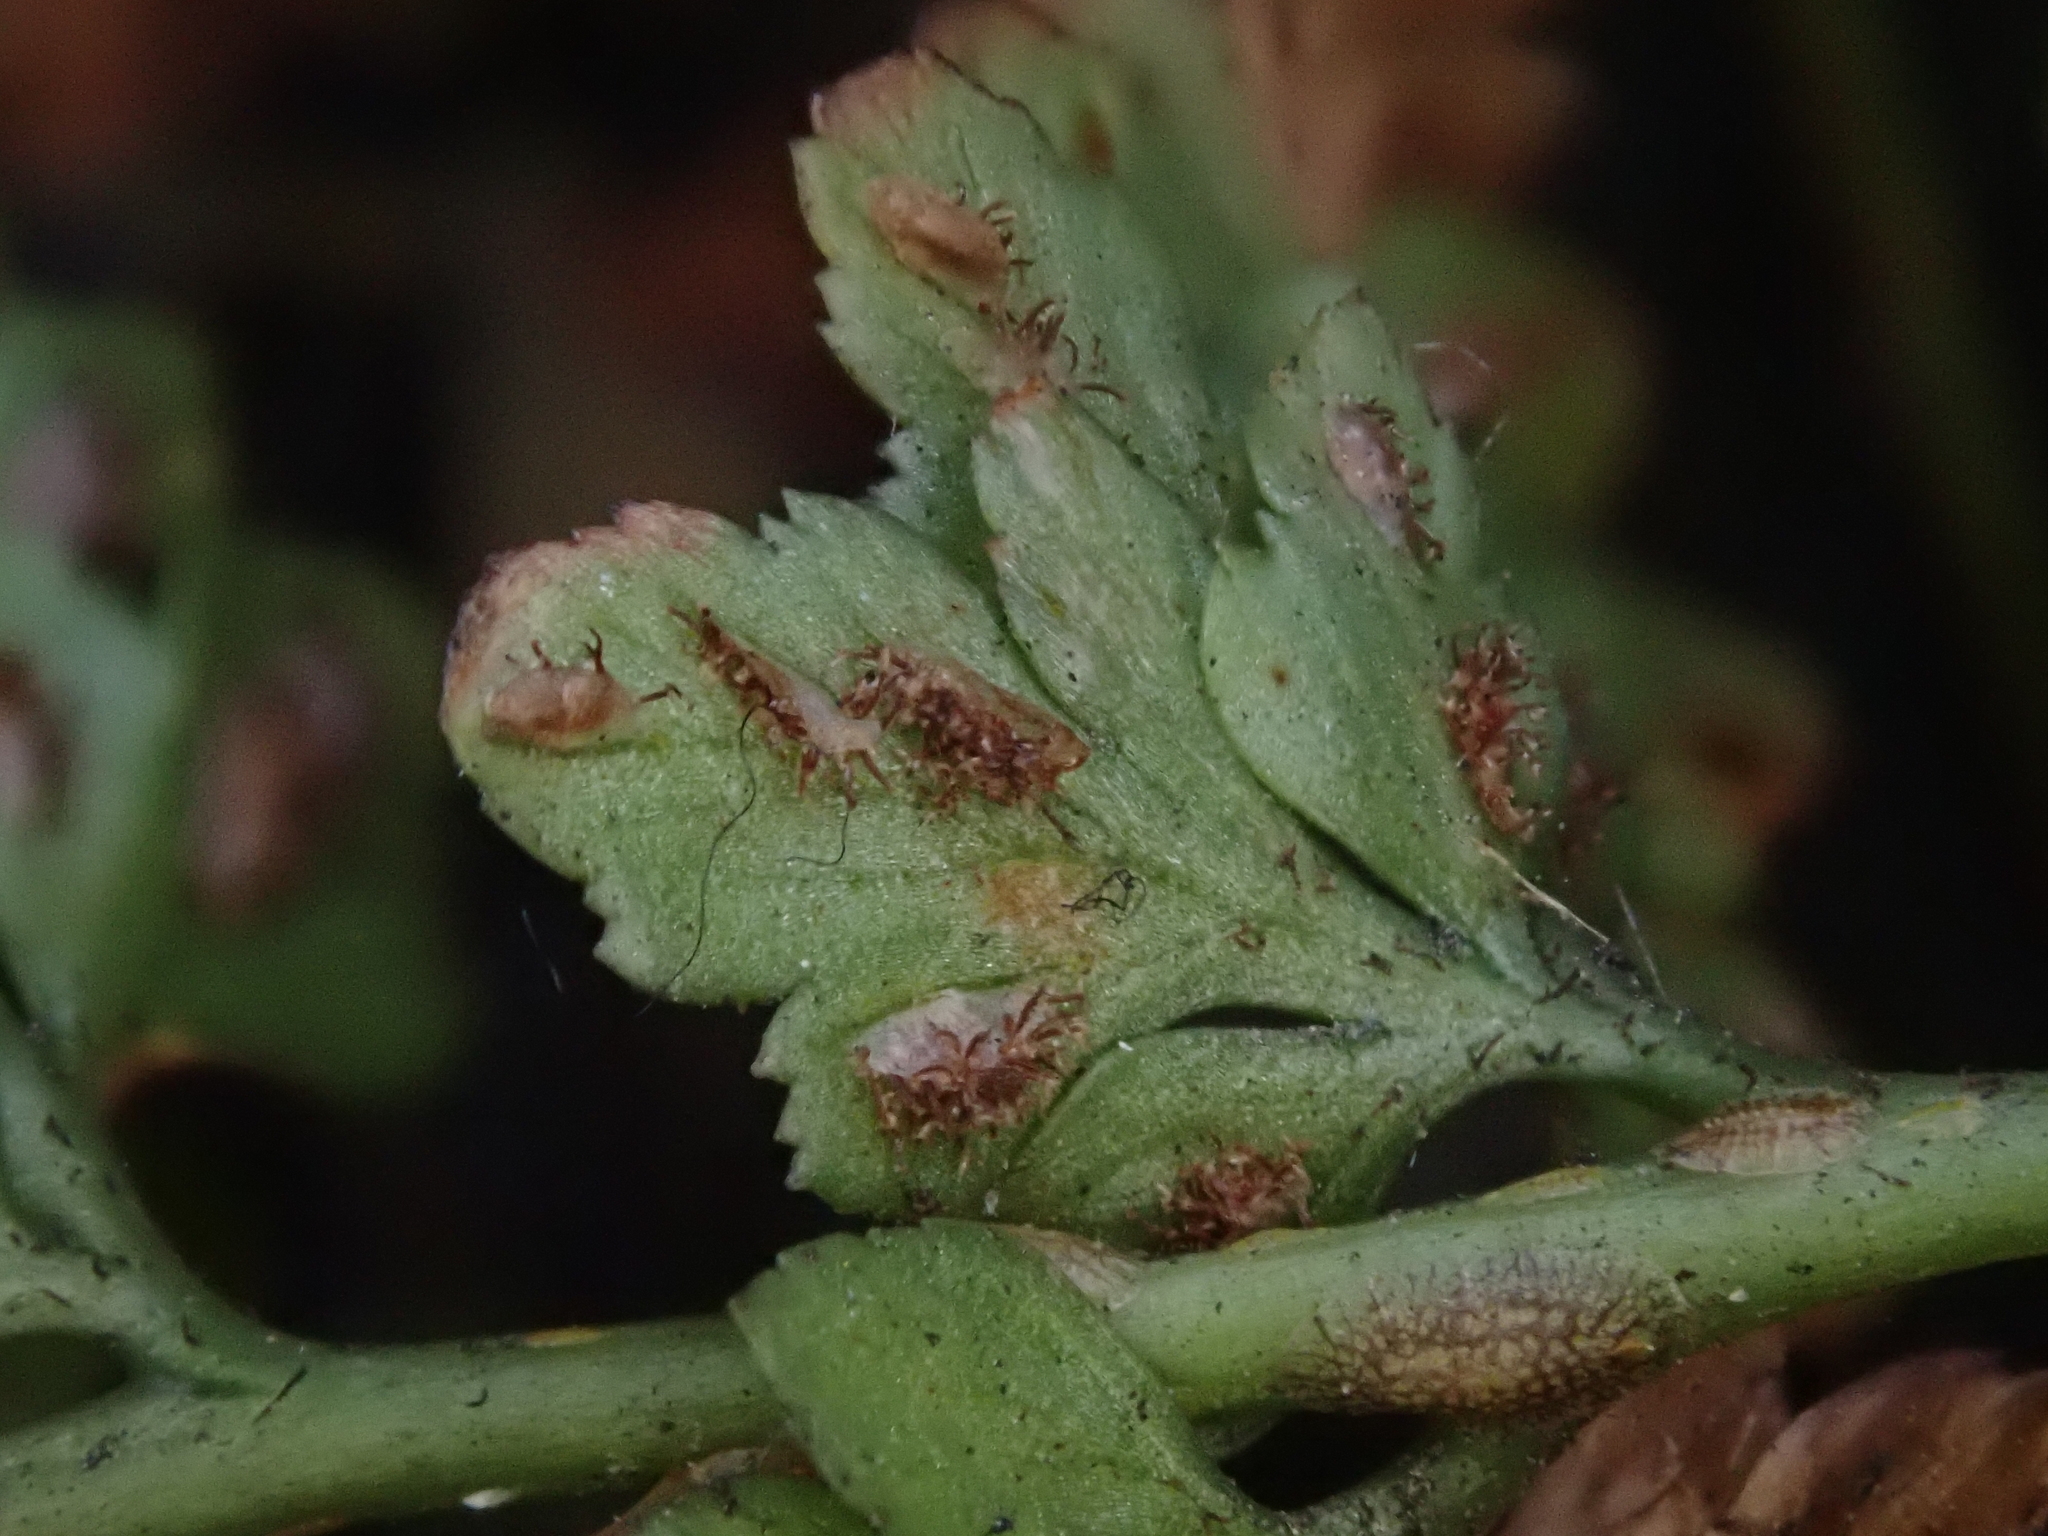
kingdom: Plantae
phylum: Tracheophyta
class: Polypodiopsida
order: Polypodiales
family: Aspleniaceae
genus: Asplenium
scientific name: Asplenium adiantum-nigrum
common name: Black spleenwort
